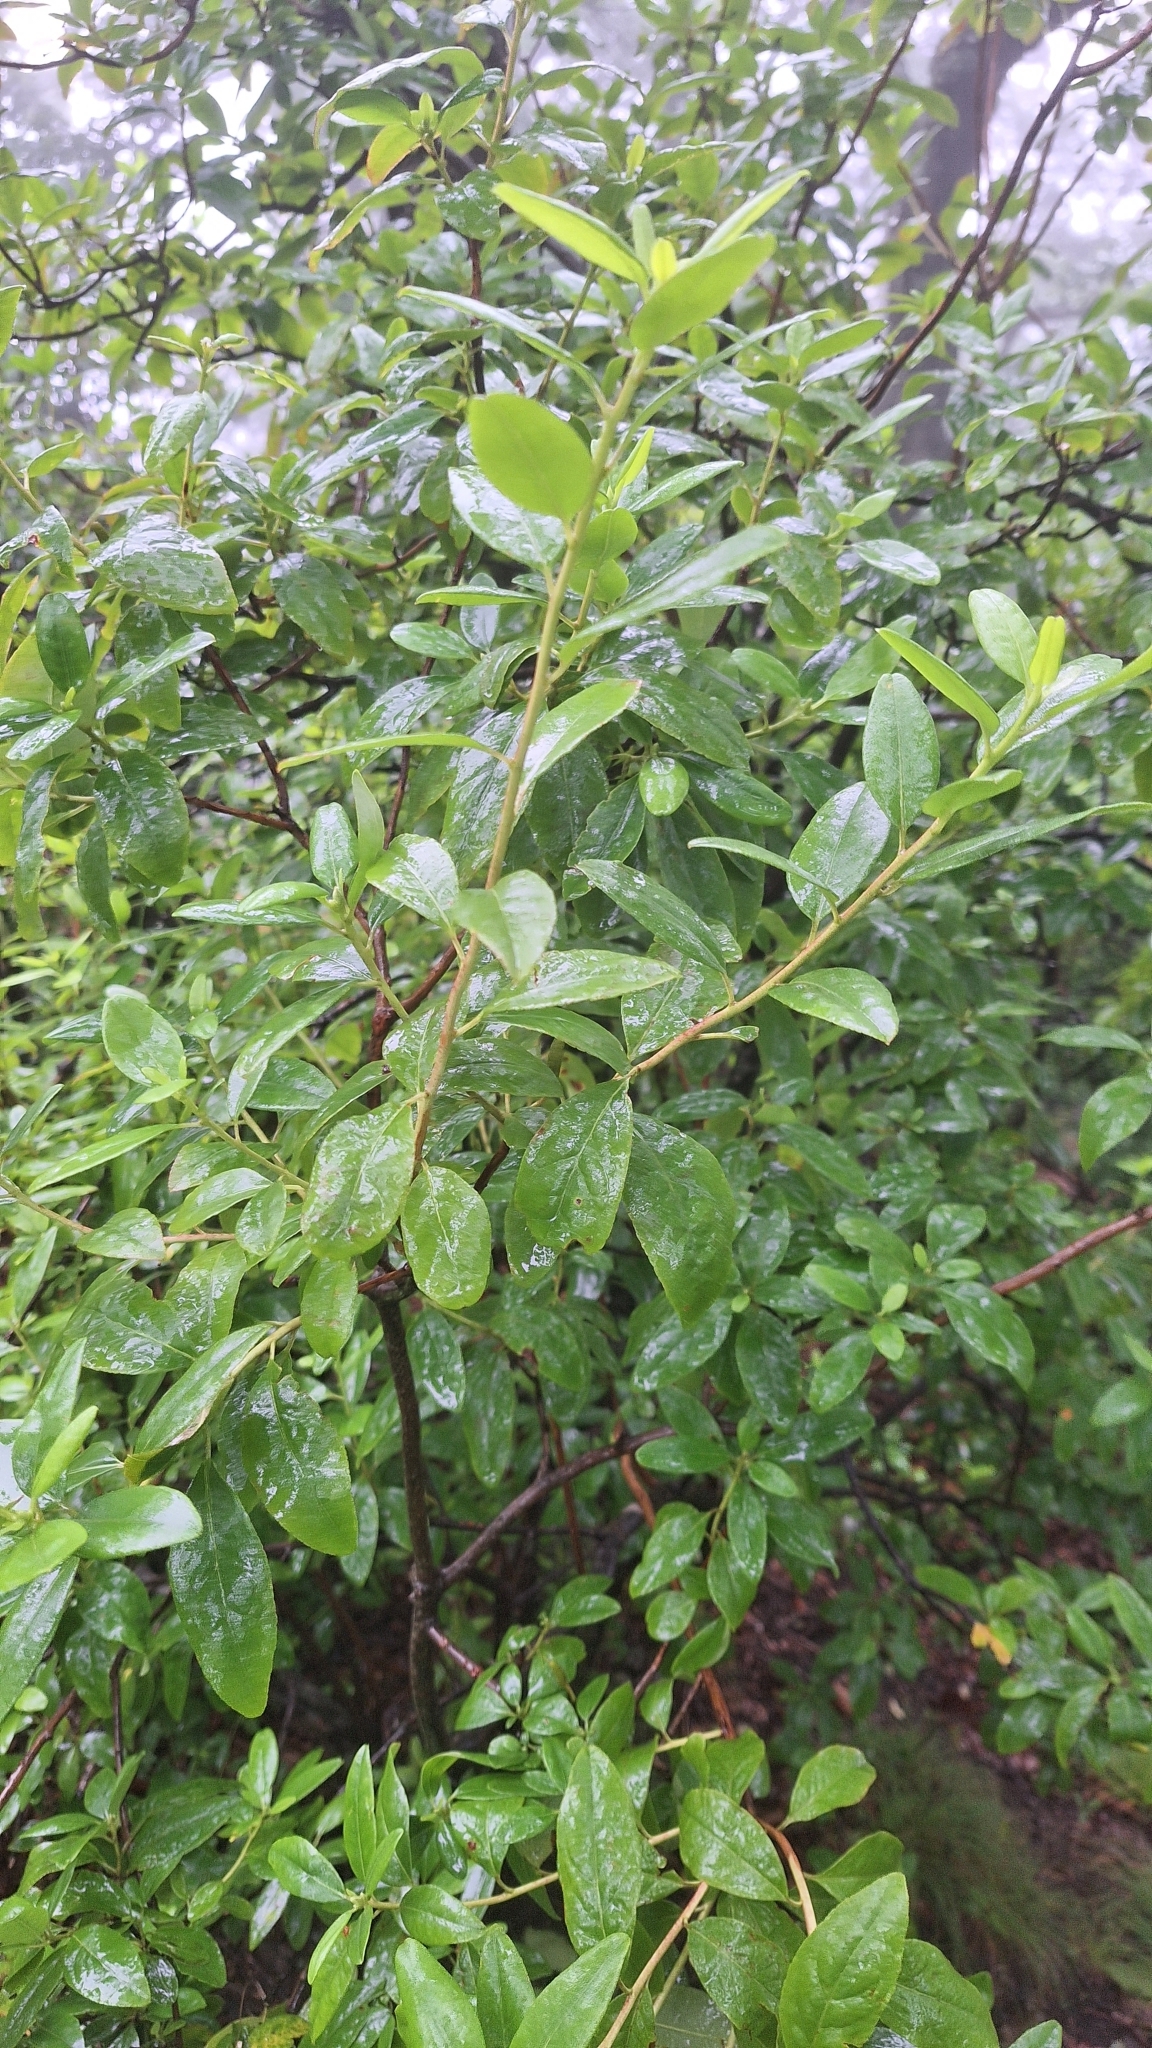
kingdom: Plantae
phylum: Tracheophyta
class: Magnoliopsida
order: Ericales
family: Ericaceae
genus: Rhododendron
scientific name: Rhododendron mucronulatum
